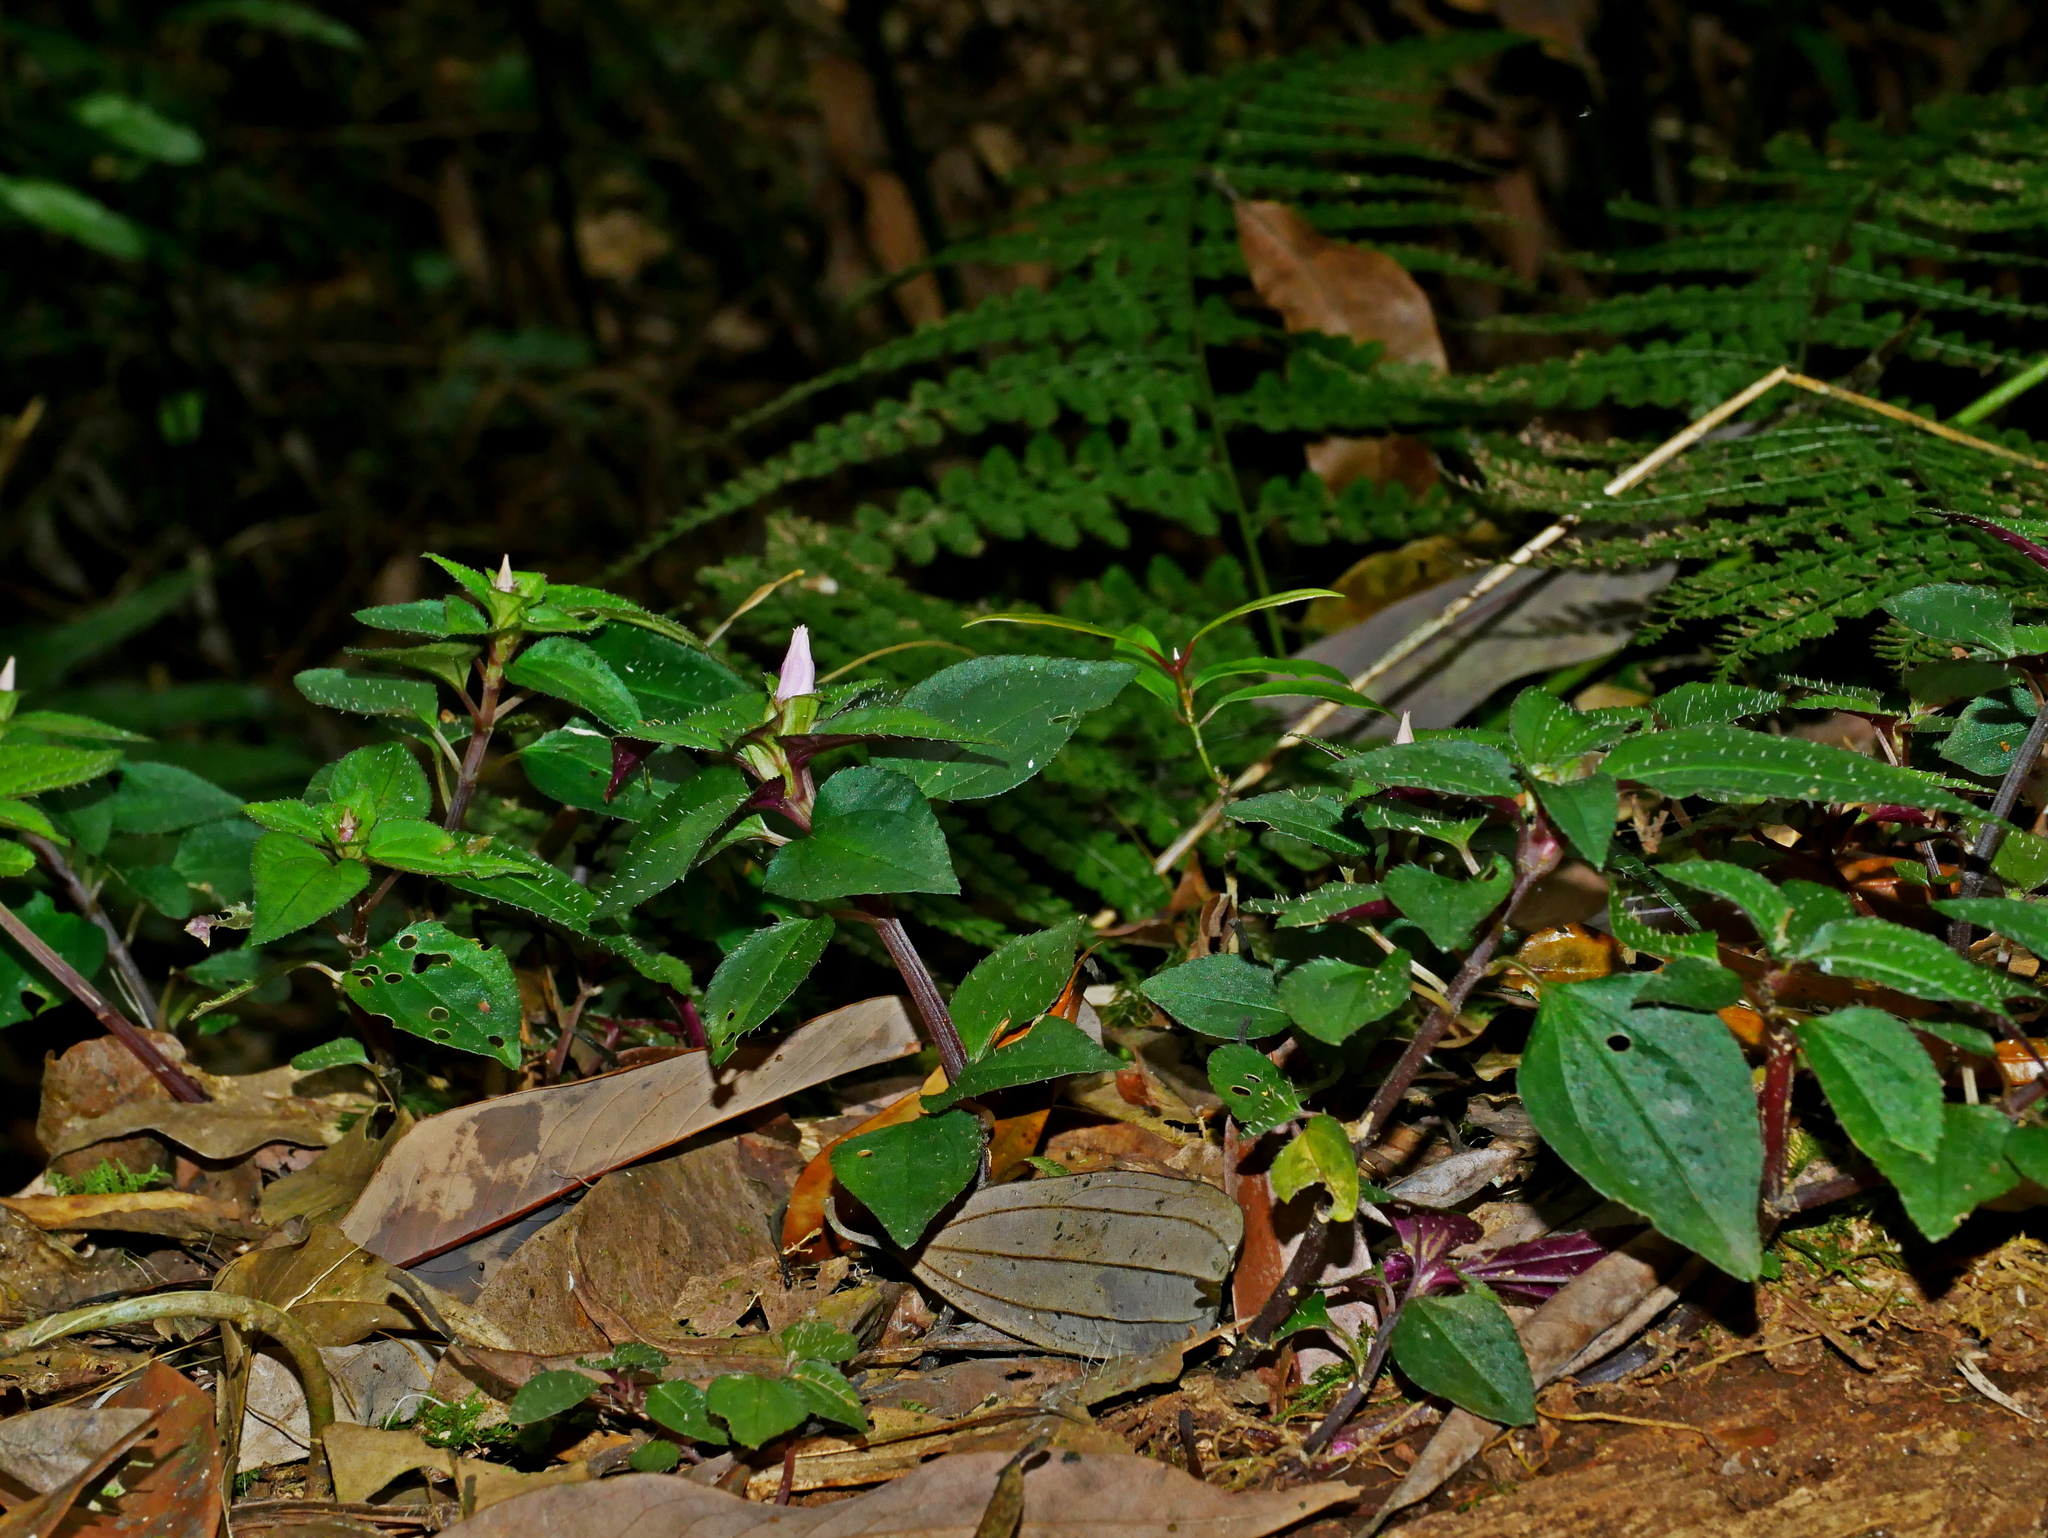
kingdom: Plantae
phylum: Tracheophyta
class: Magnoliopsida
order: Myrtales
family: Melastomataceae
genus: Sarcopyramis
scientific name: Sarcopyramis bodinieri
